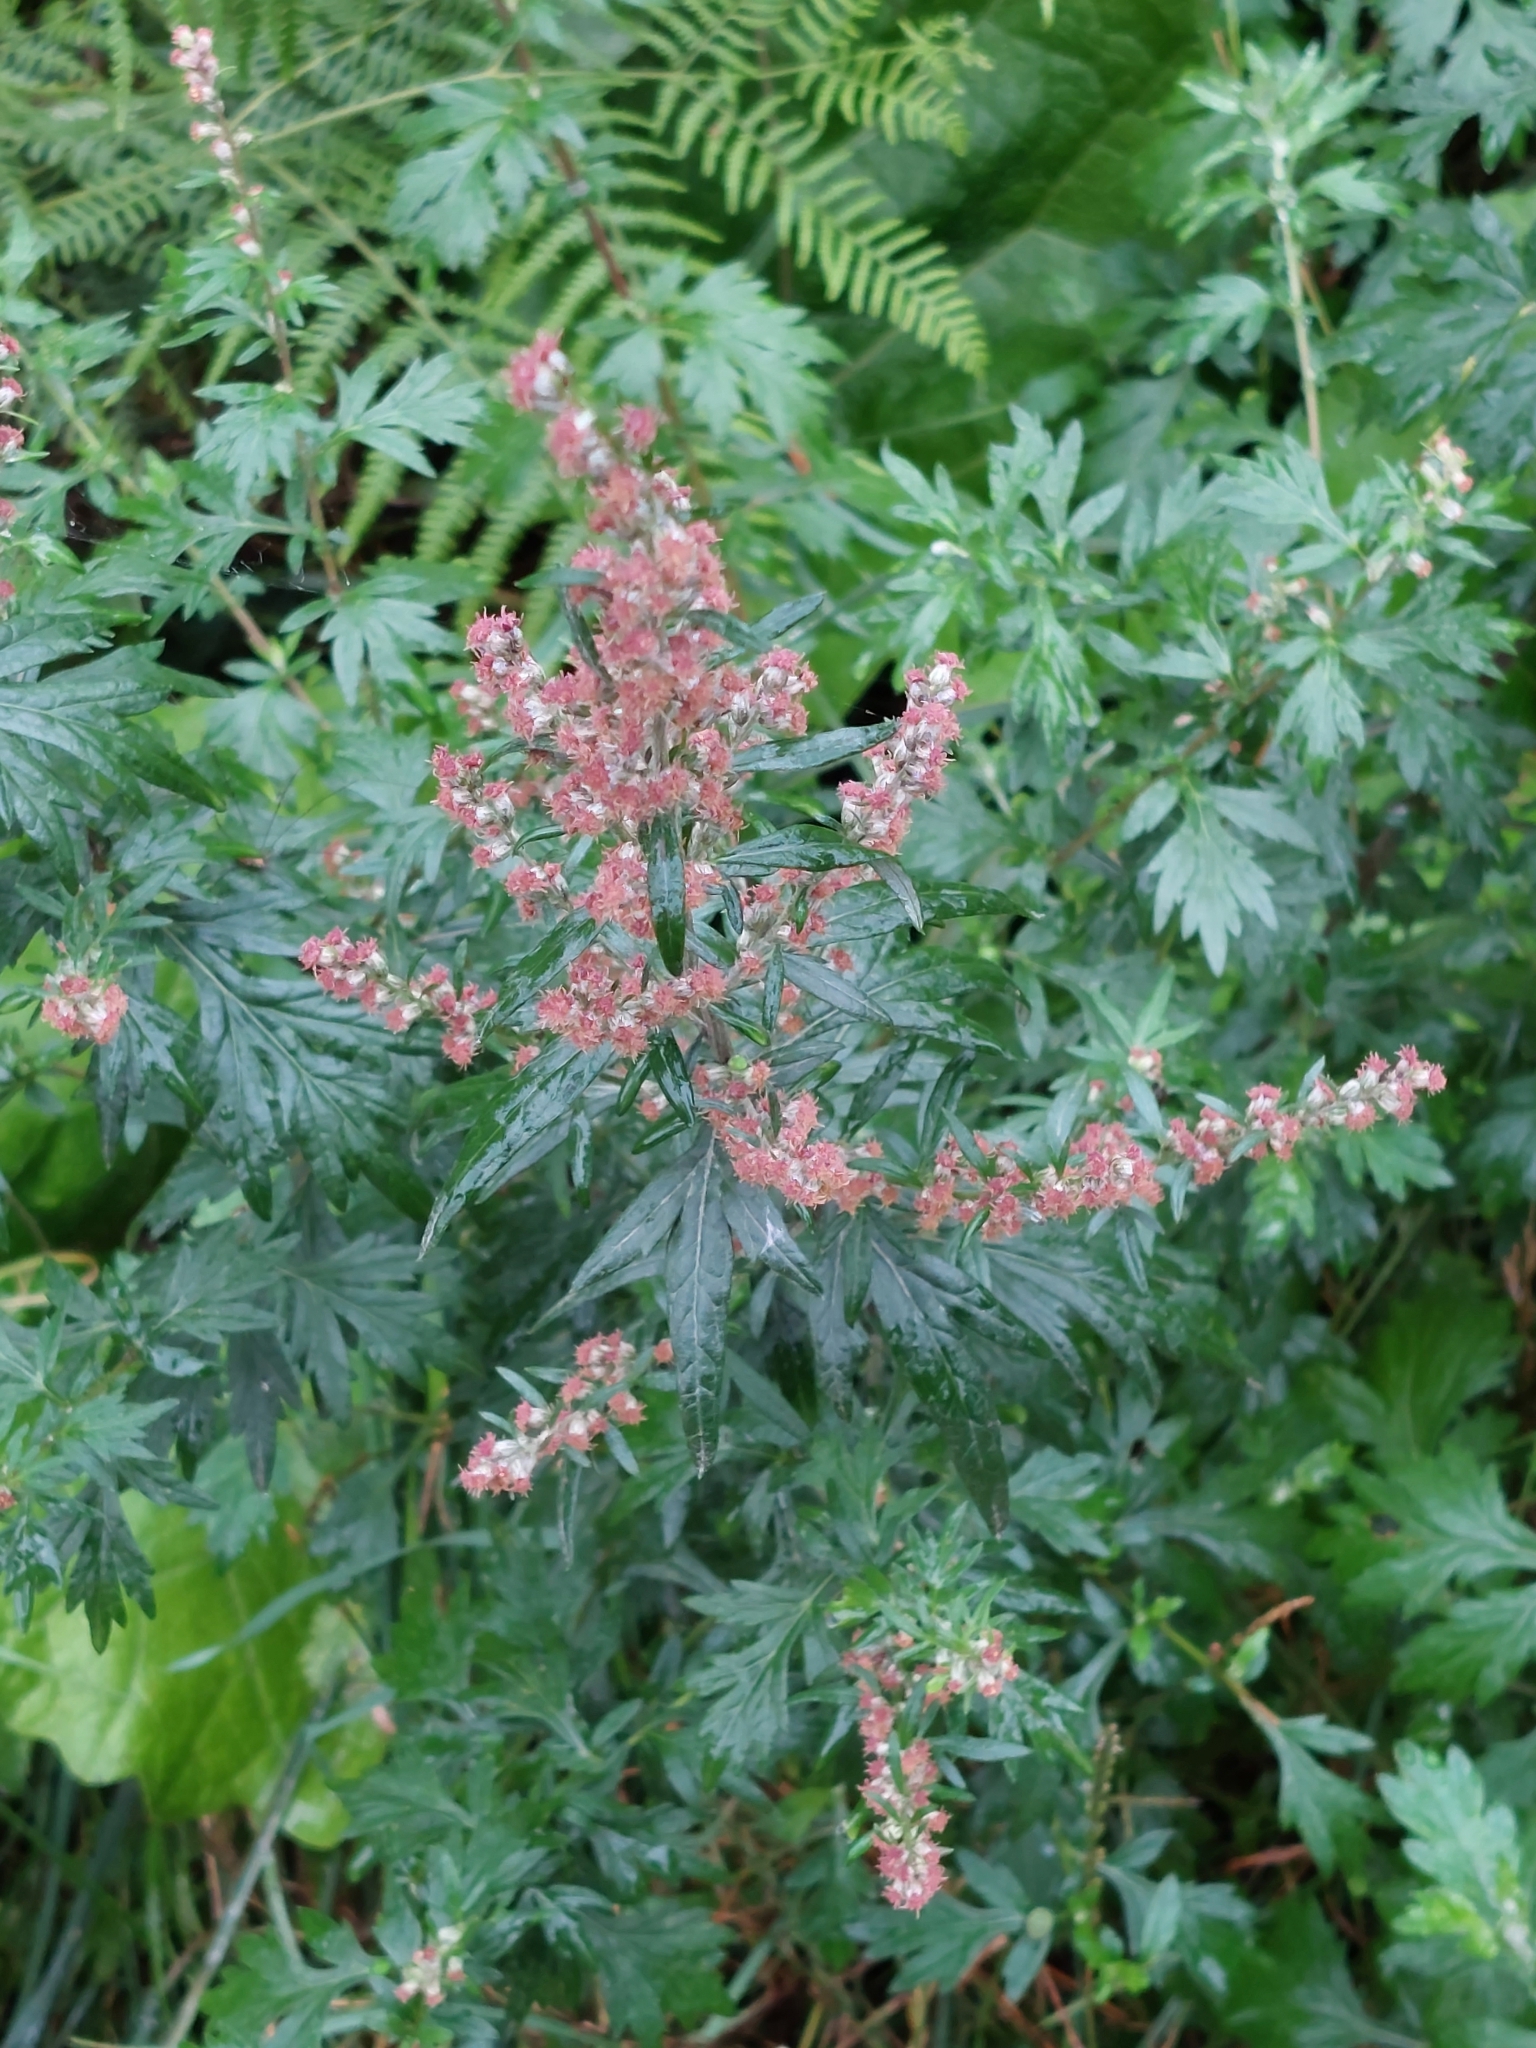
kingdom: Plantae
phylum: Tracheophyta
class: Magnoliopsida
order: Asterales
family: Asteraceae
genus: Artemisia
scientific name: Artemisia vulgaris
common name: Mugwort
